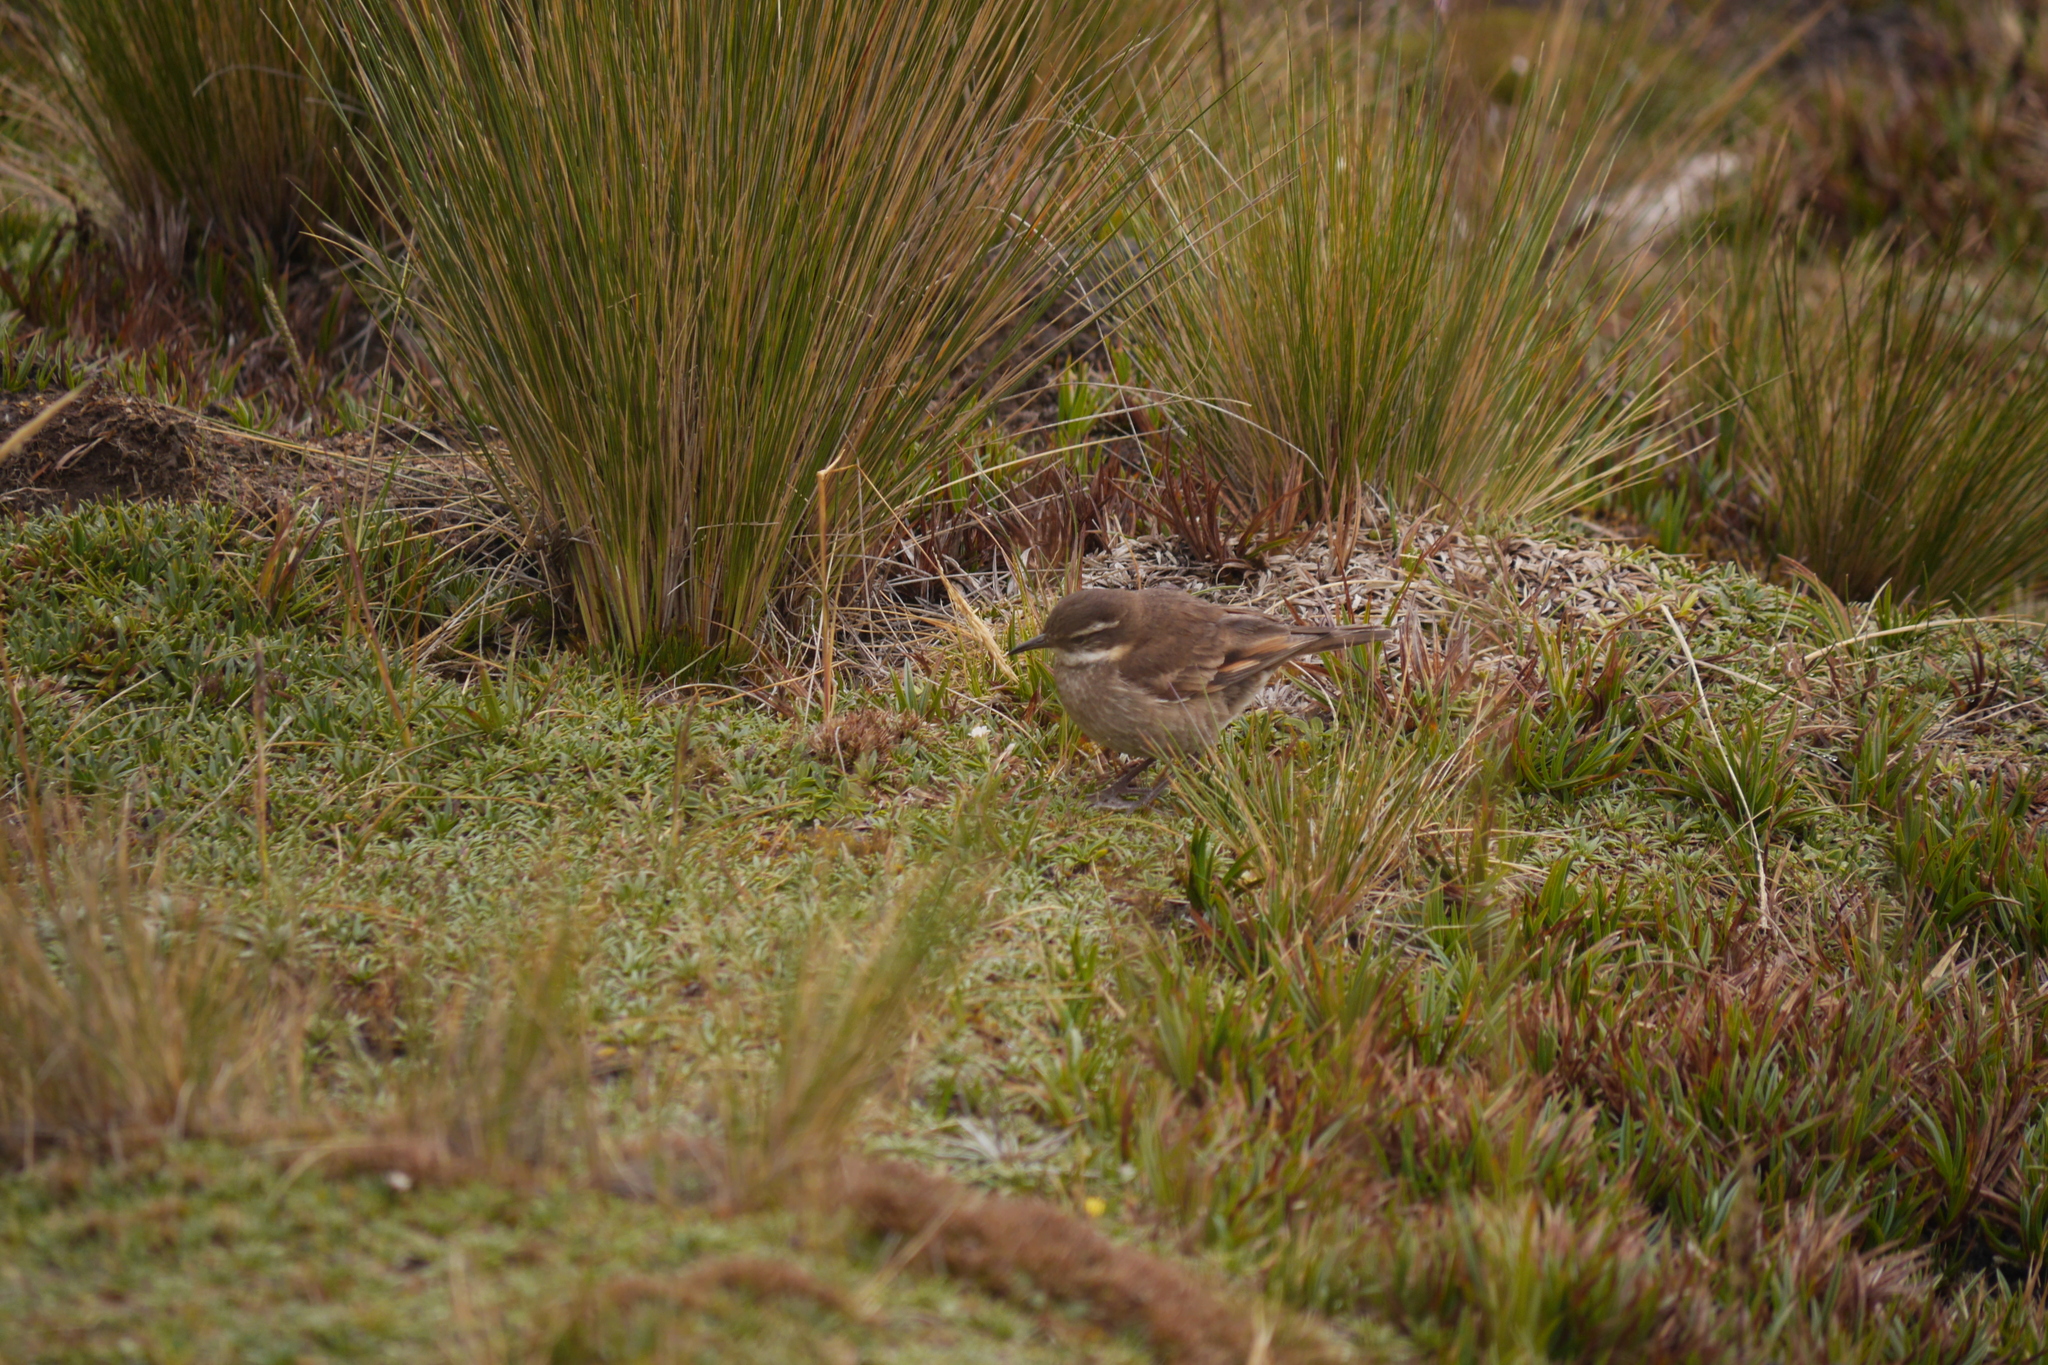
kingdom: Animalia
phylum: Chordata
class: Aves
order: Passeriformes
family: Furnariidae
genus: Cinclodes
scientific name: Cinclodes albidiventris
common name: Chestnut-winged cinclodes
